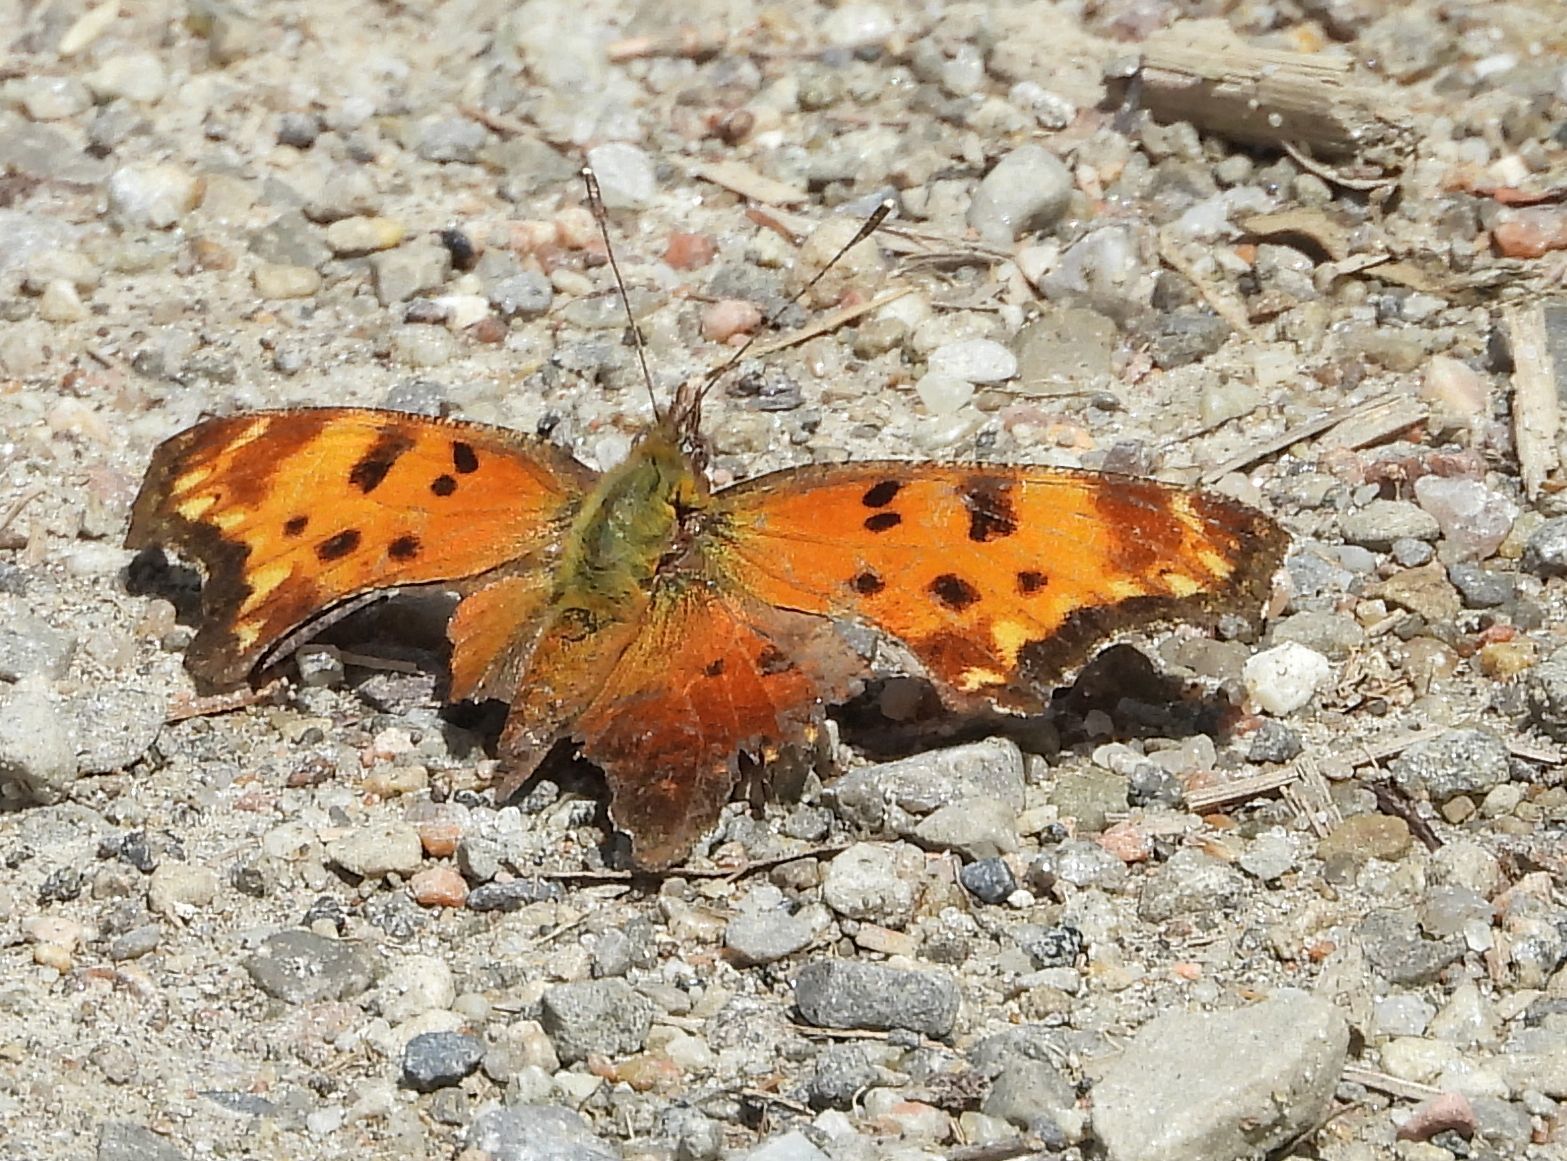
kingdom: Animalia
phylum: Arthropoda
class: Insecta
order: Lepidoptera
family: Nymphalidae
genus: Polygonia
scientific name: Polygonia progne
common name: Gray comma
